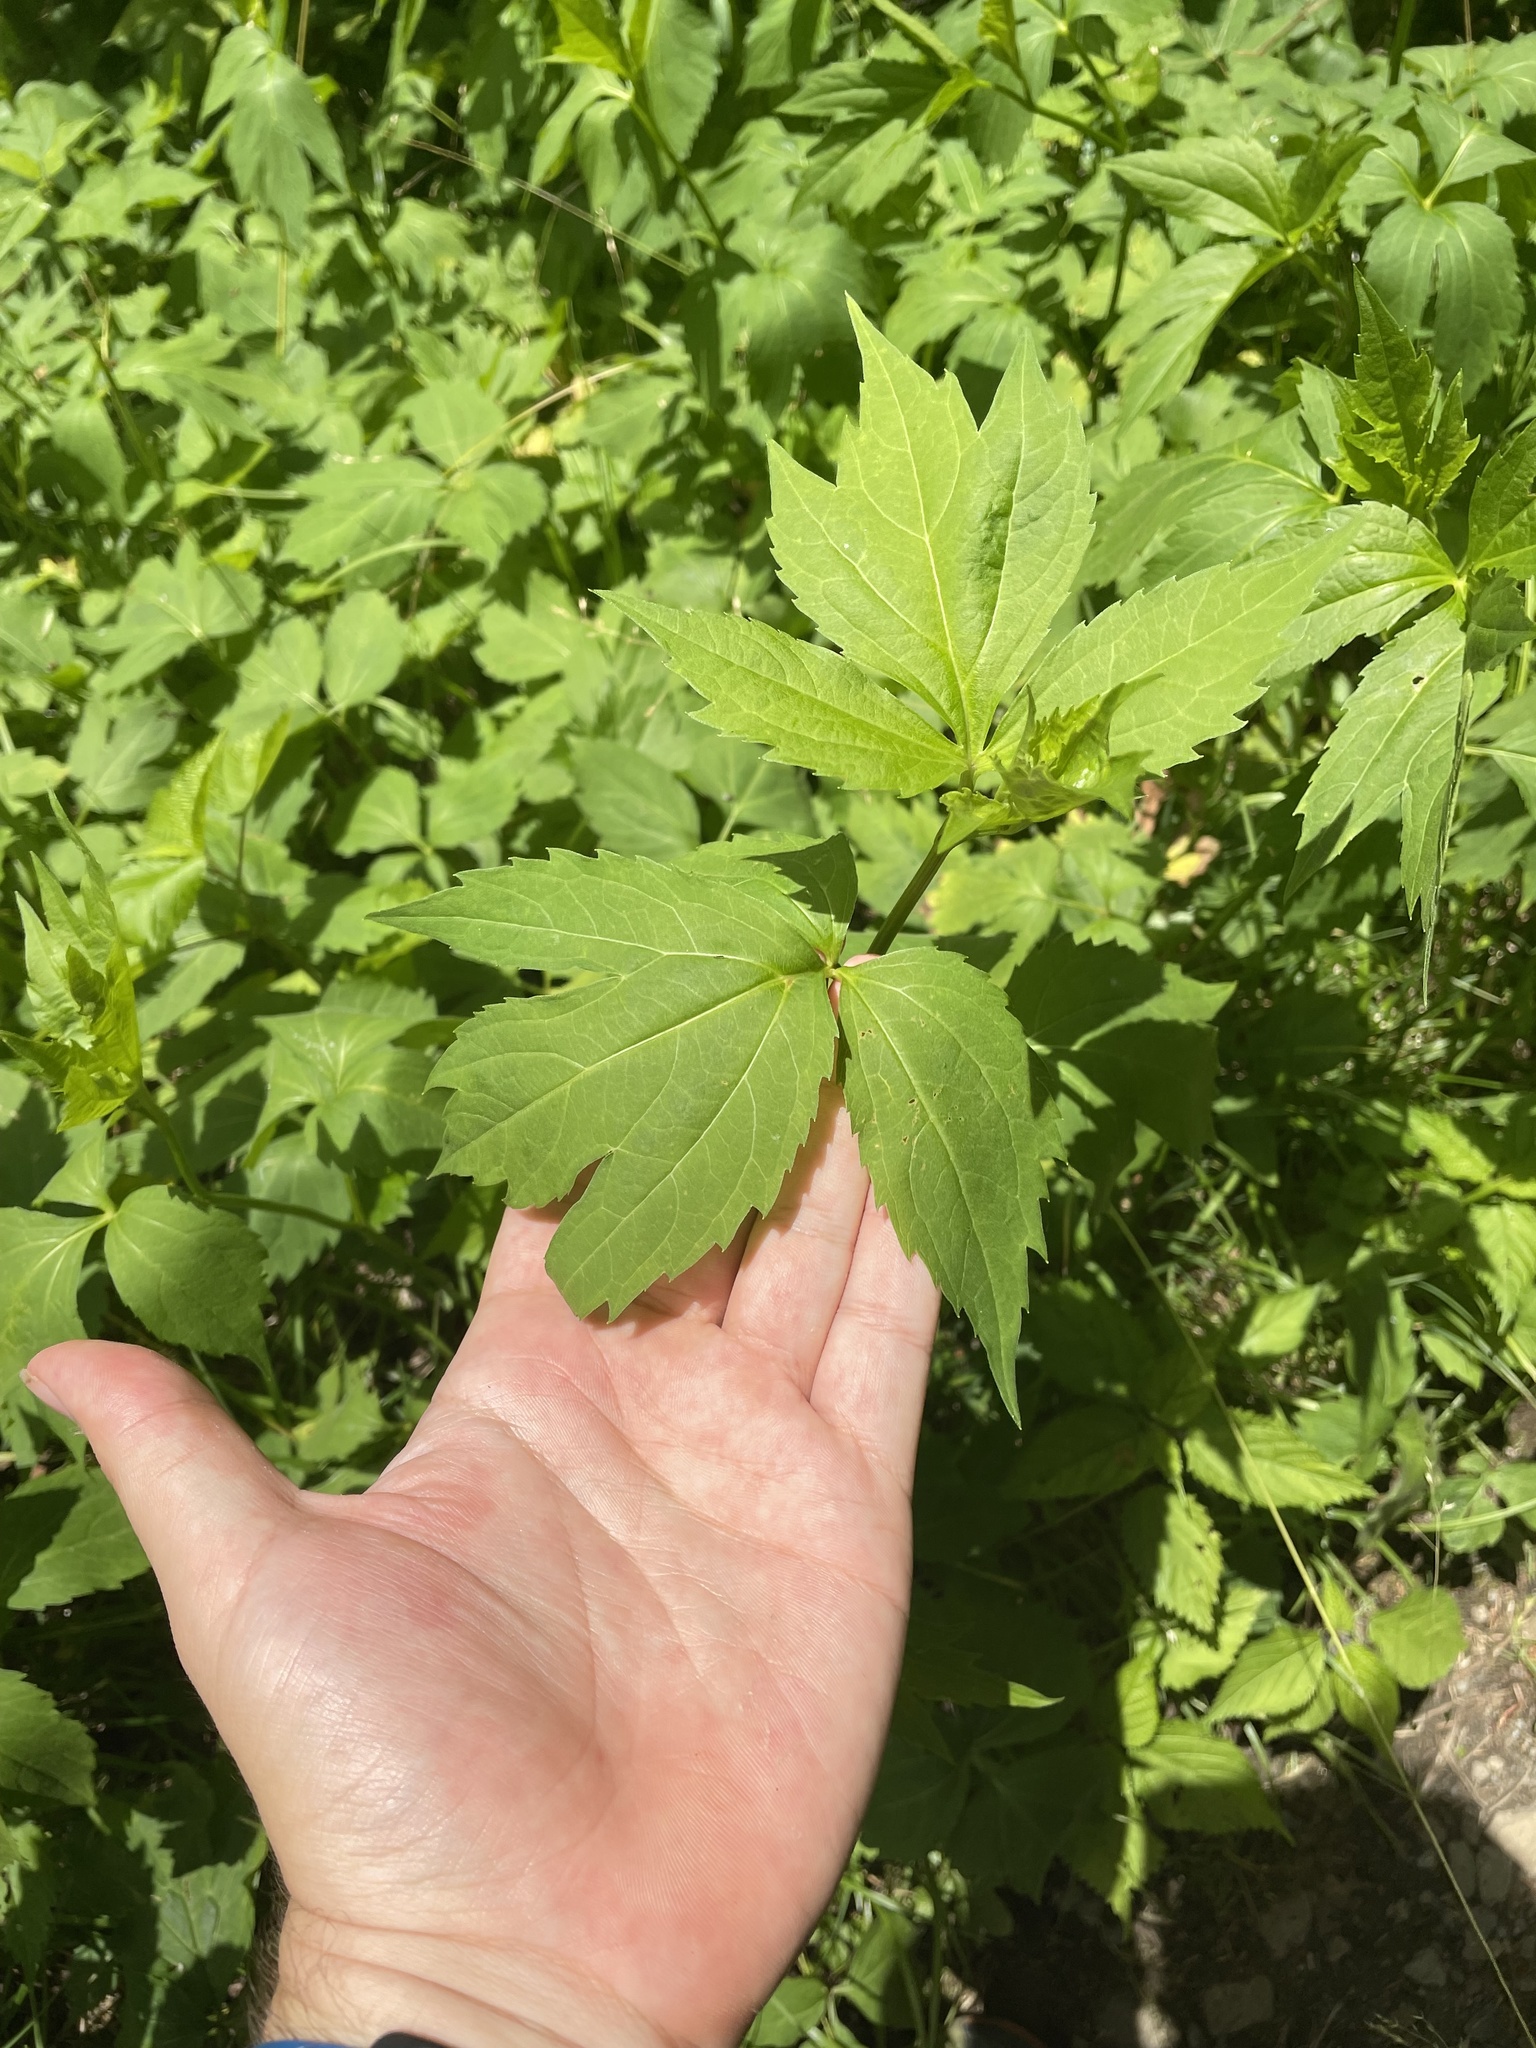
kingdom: Plantae
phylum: Tracheophyta
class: Magnoliopsida
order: Asterales
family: Asteraceae
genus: Rudbeckia
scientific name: Rudbeckia laciniata
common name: Coneflower
